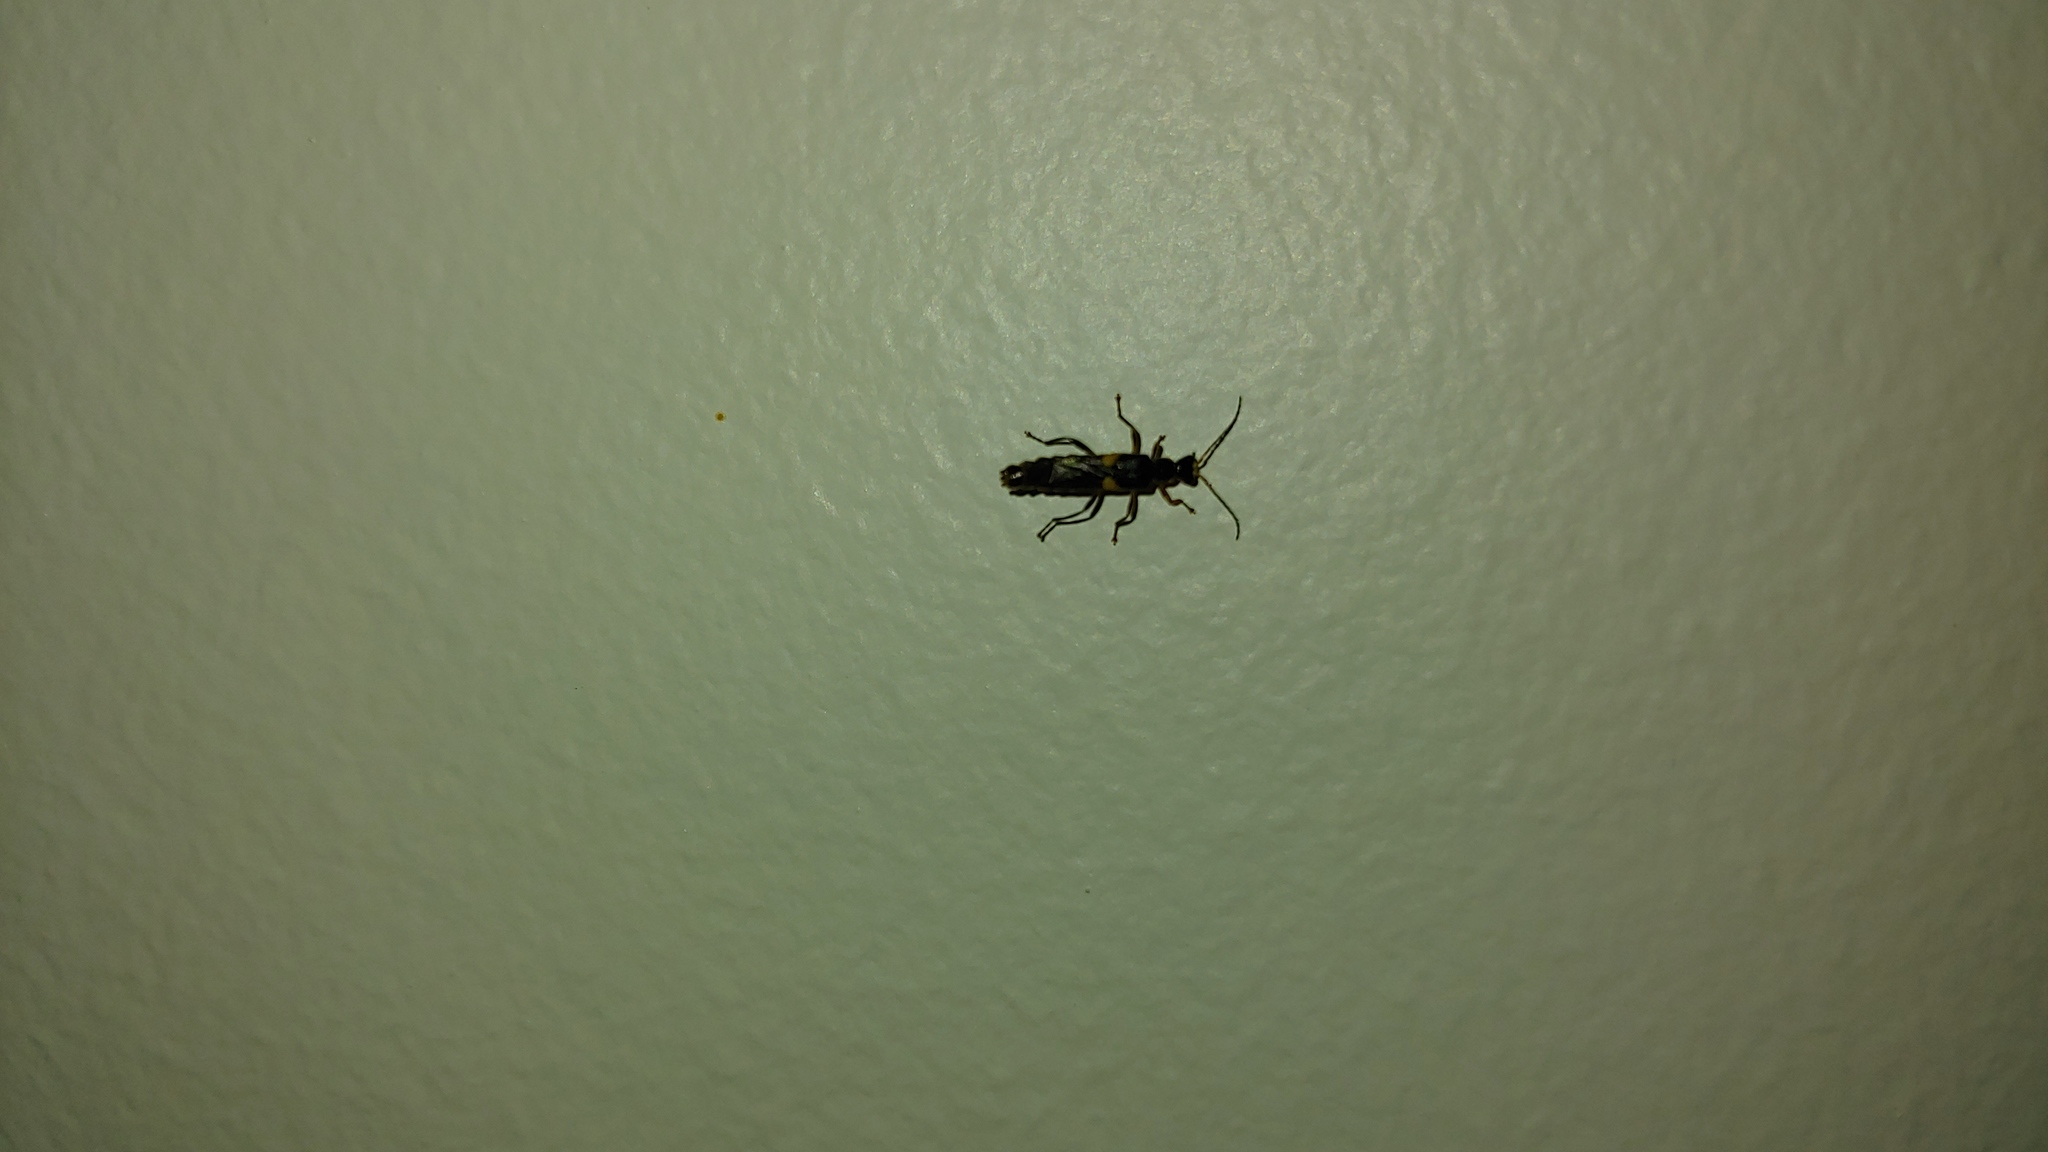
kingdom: Animalia
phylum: Arthropoda
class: Insecta
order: Coleoptera
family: Cantharidae
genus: Trypherus
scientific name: Trypherus
